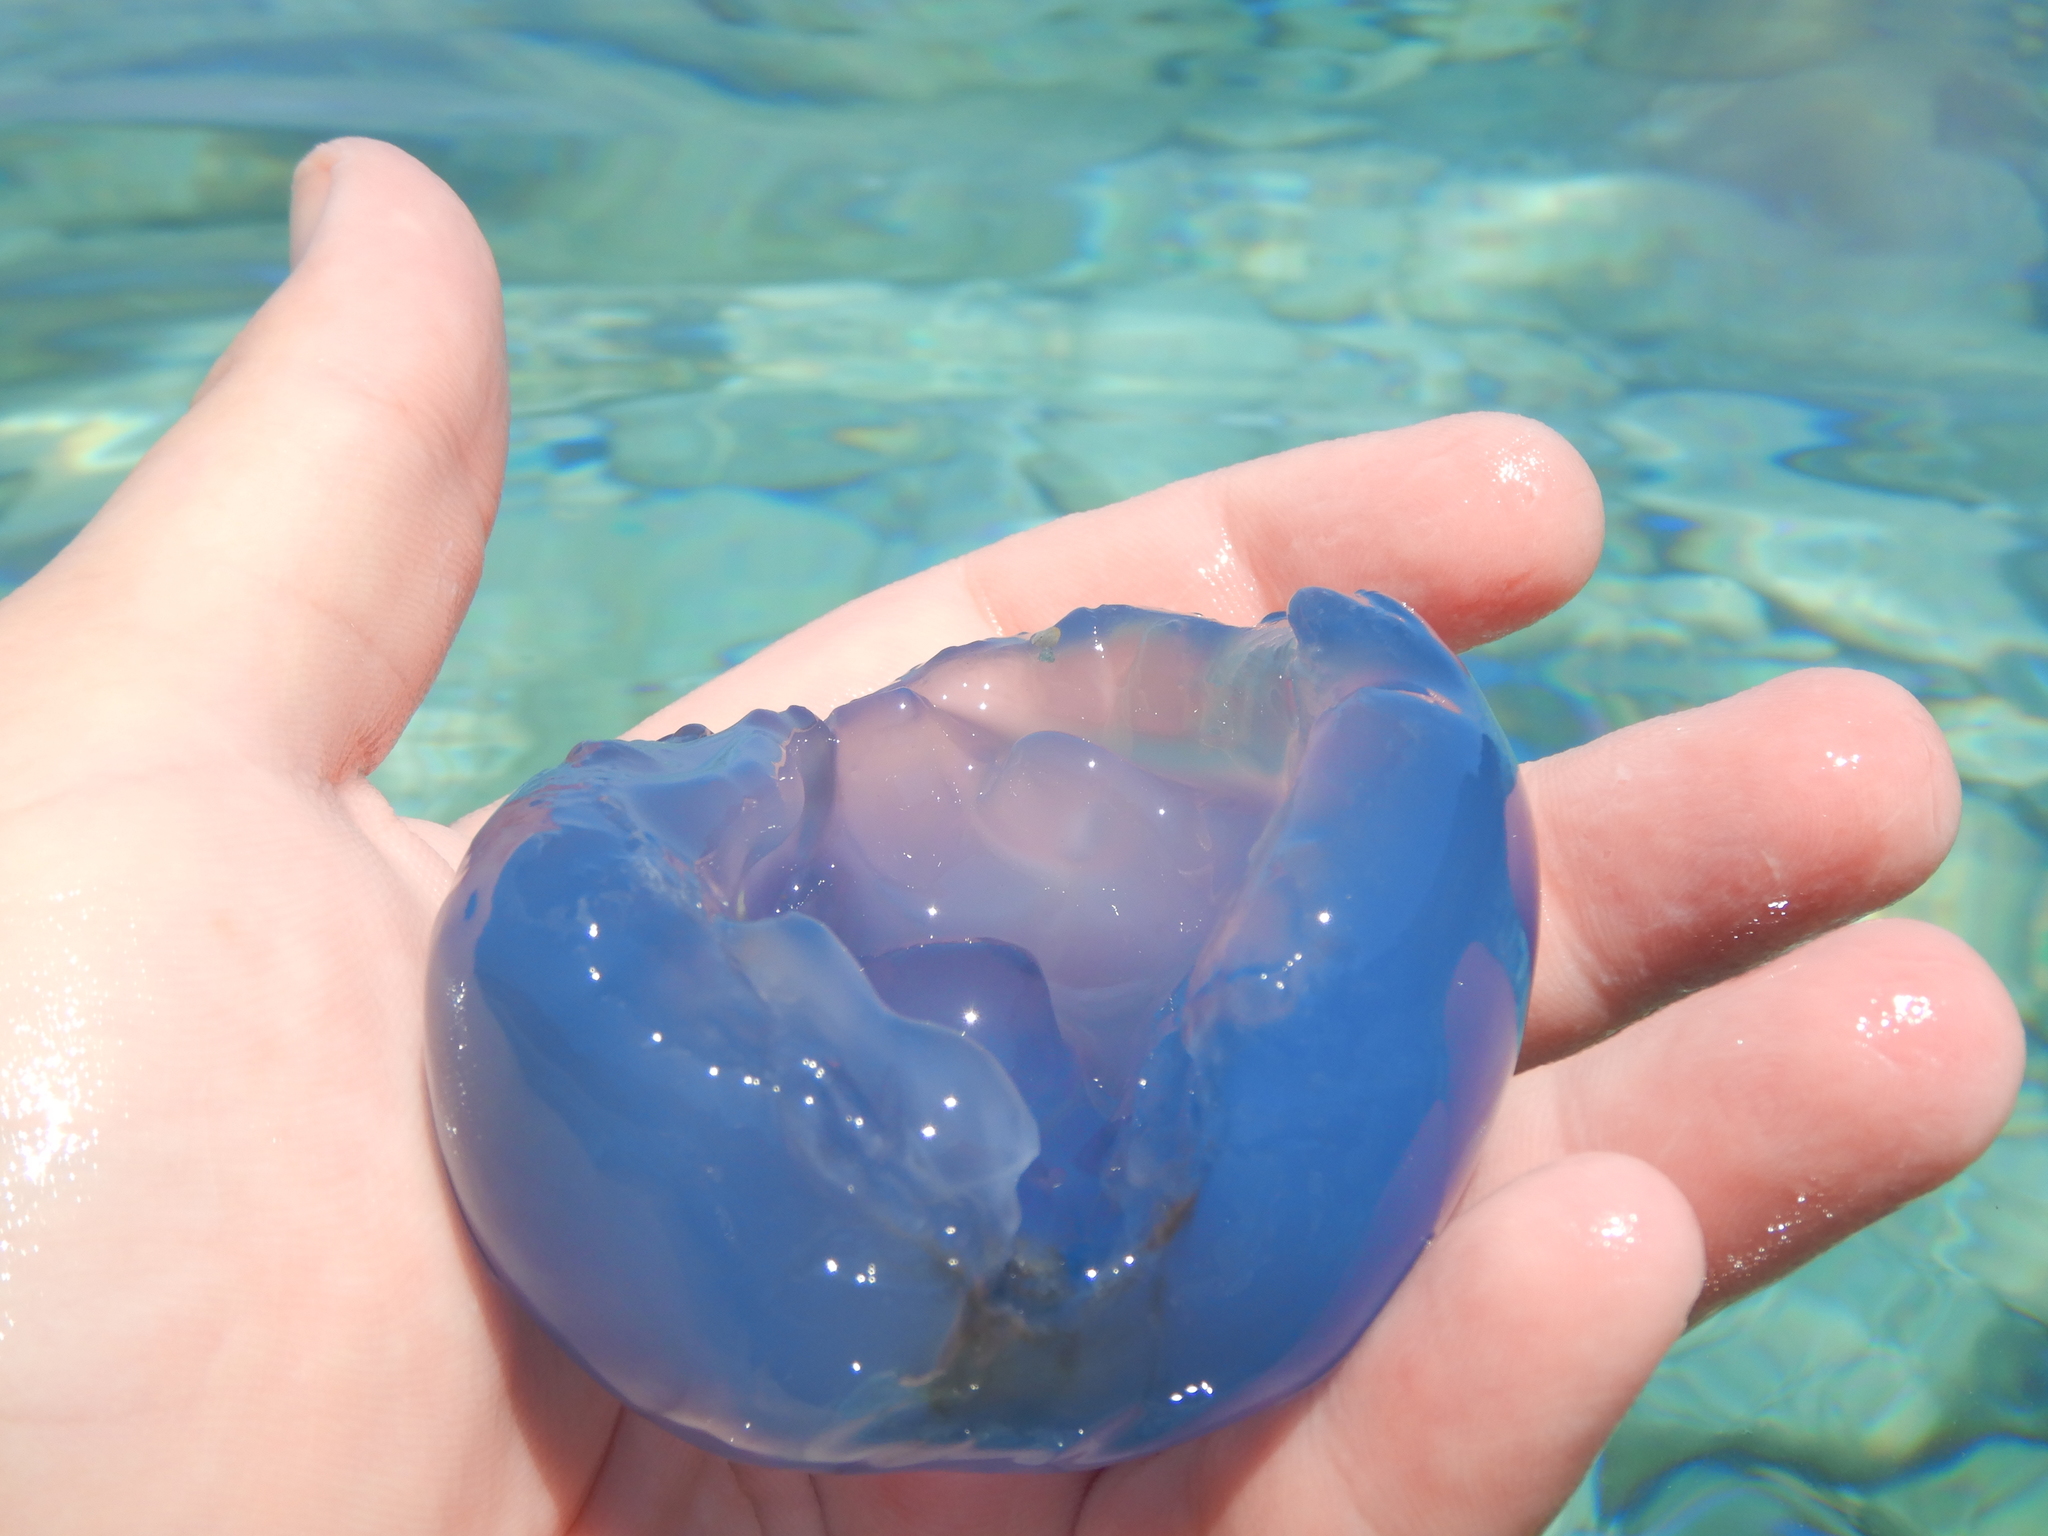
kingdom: Animalia
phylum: Cnidaria
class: Scyphozoa
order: Rhizostomeae
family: Rhizostomatidae
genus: Rhizostoma
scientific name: Rhizostoma pulmo
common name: Barrel jellyfish
